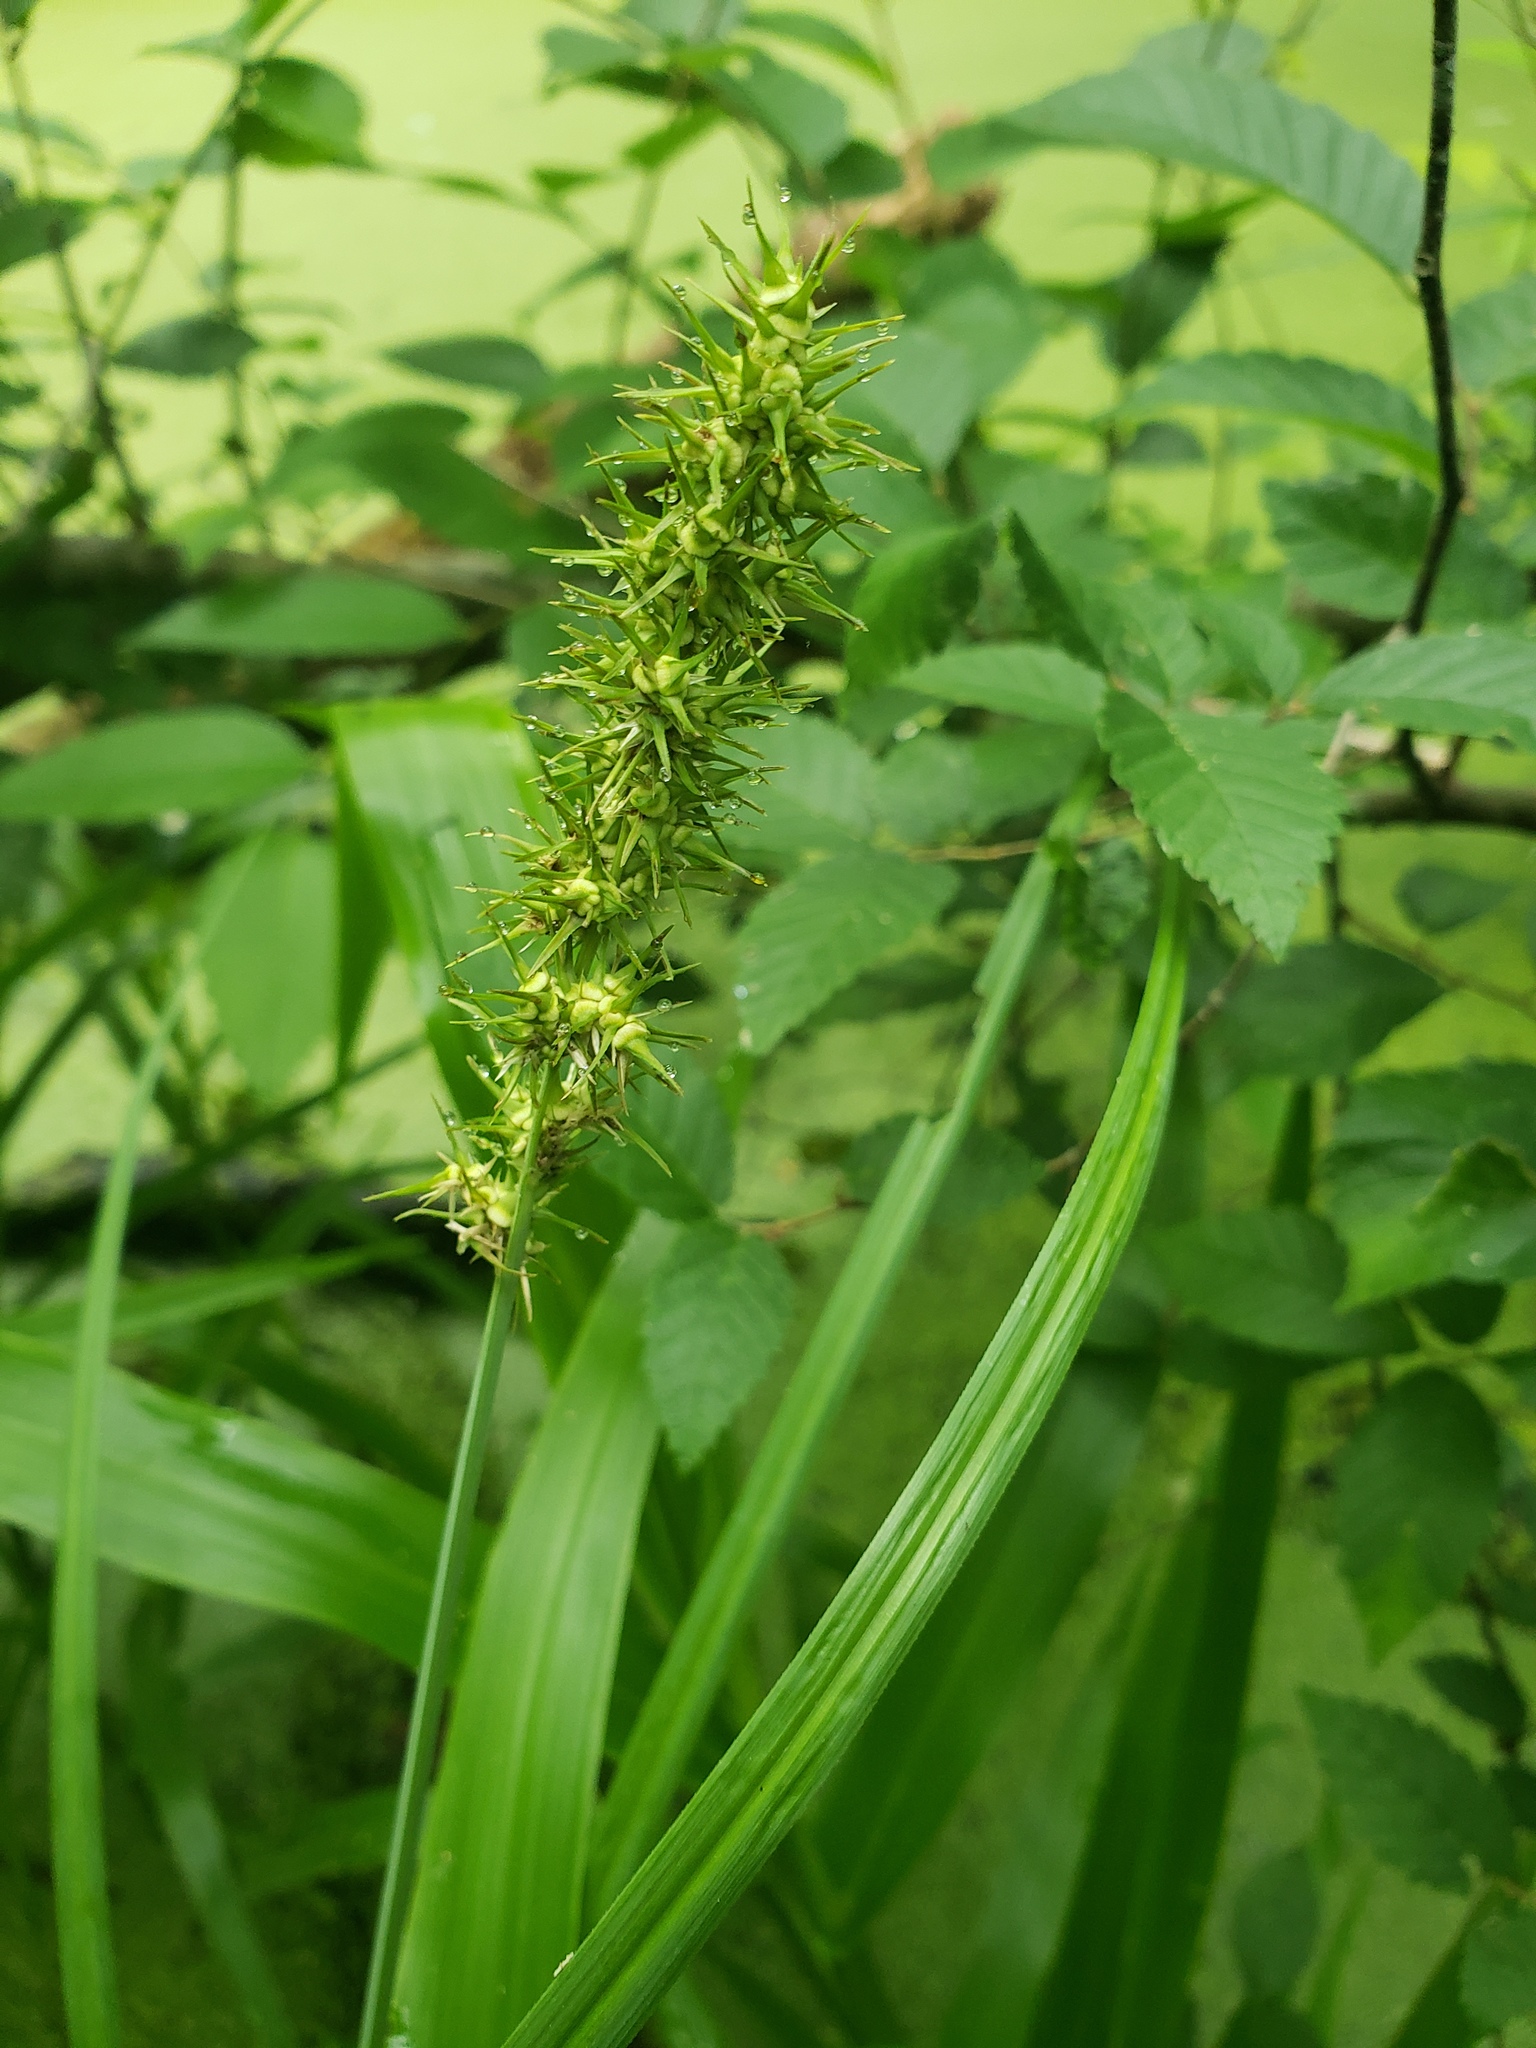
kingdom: Plantae
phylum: Tracheophyta
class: Liliopsida
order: Poales
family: Cyperaceae
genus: Carex
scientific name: Carex crus-corvi
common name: Crow-spur sedge
